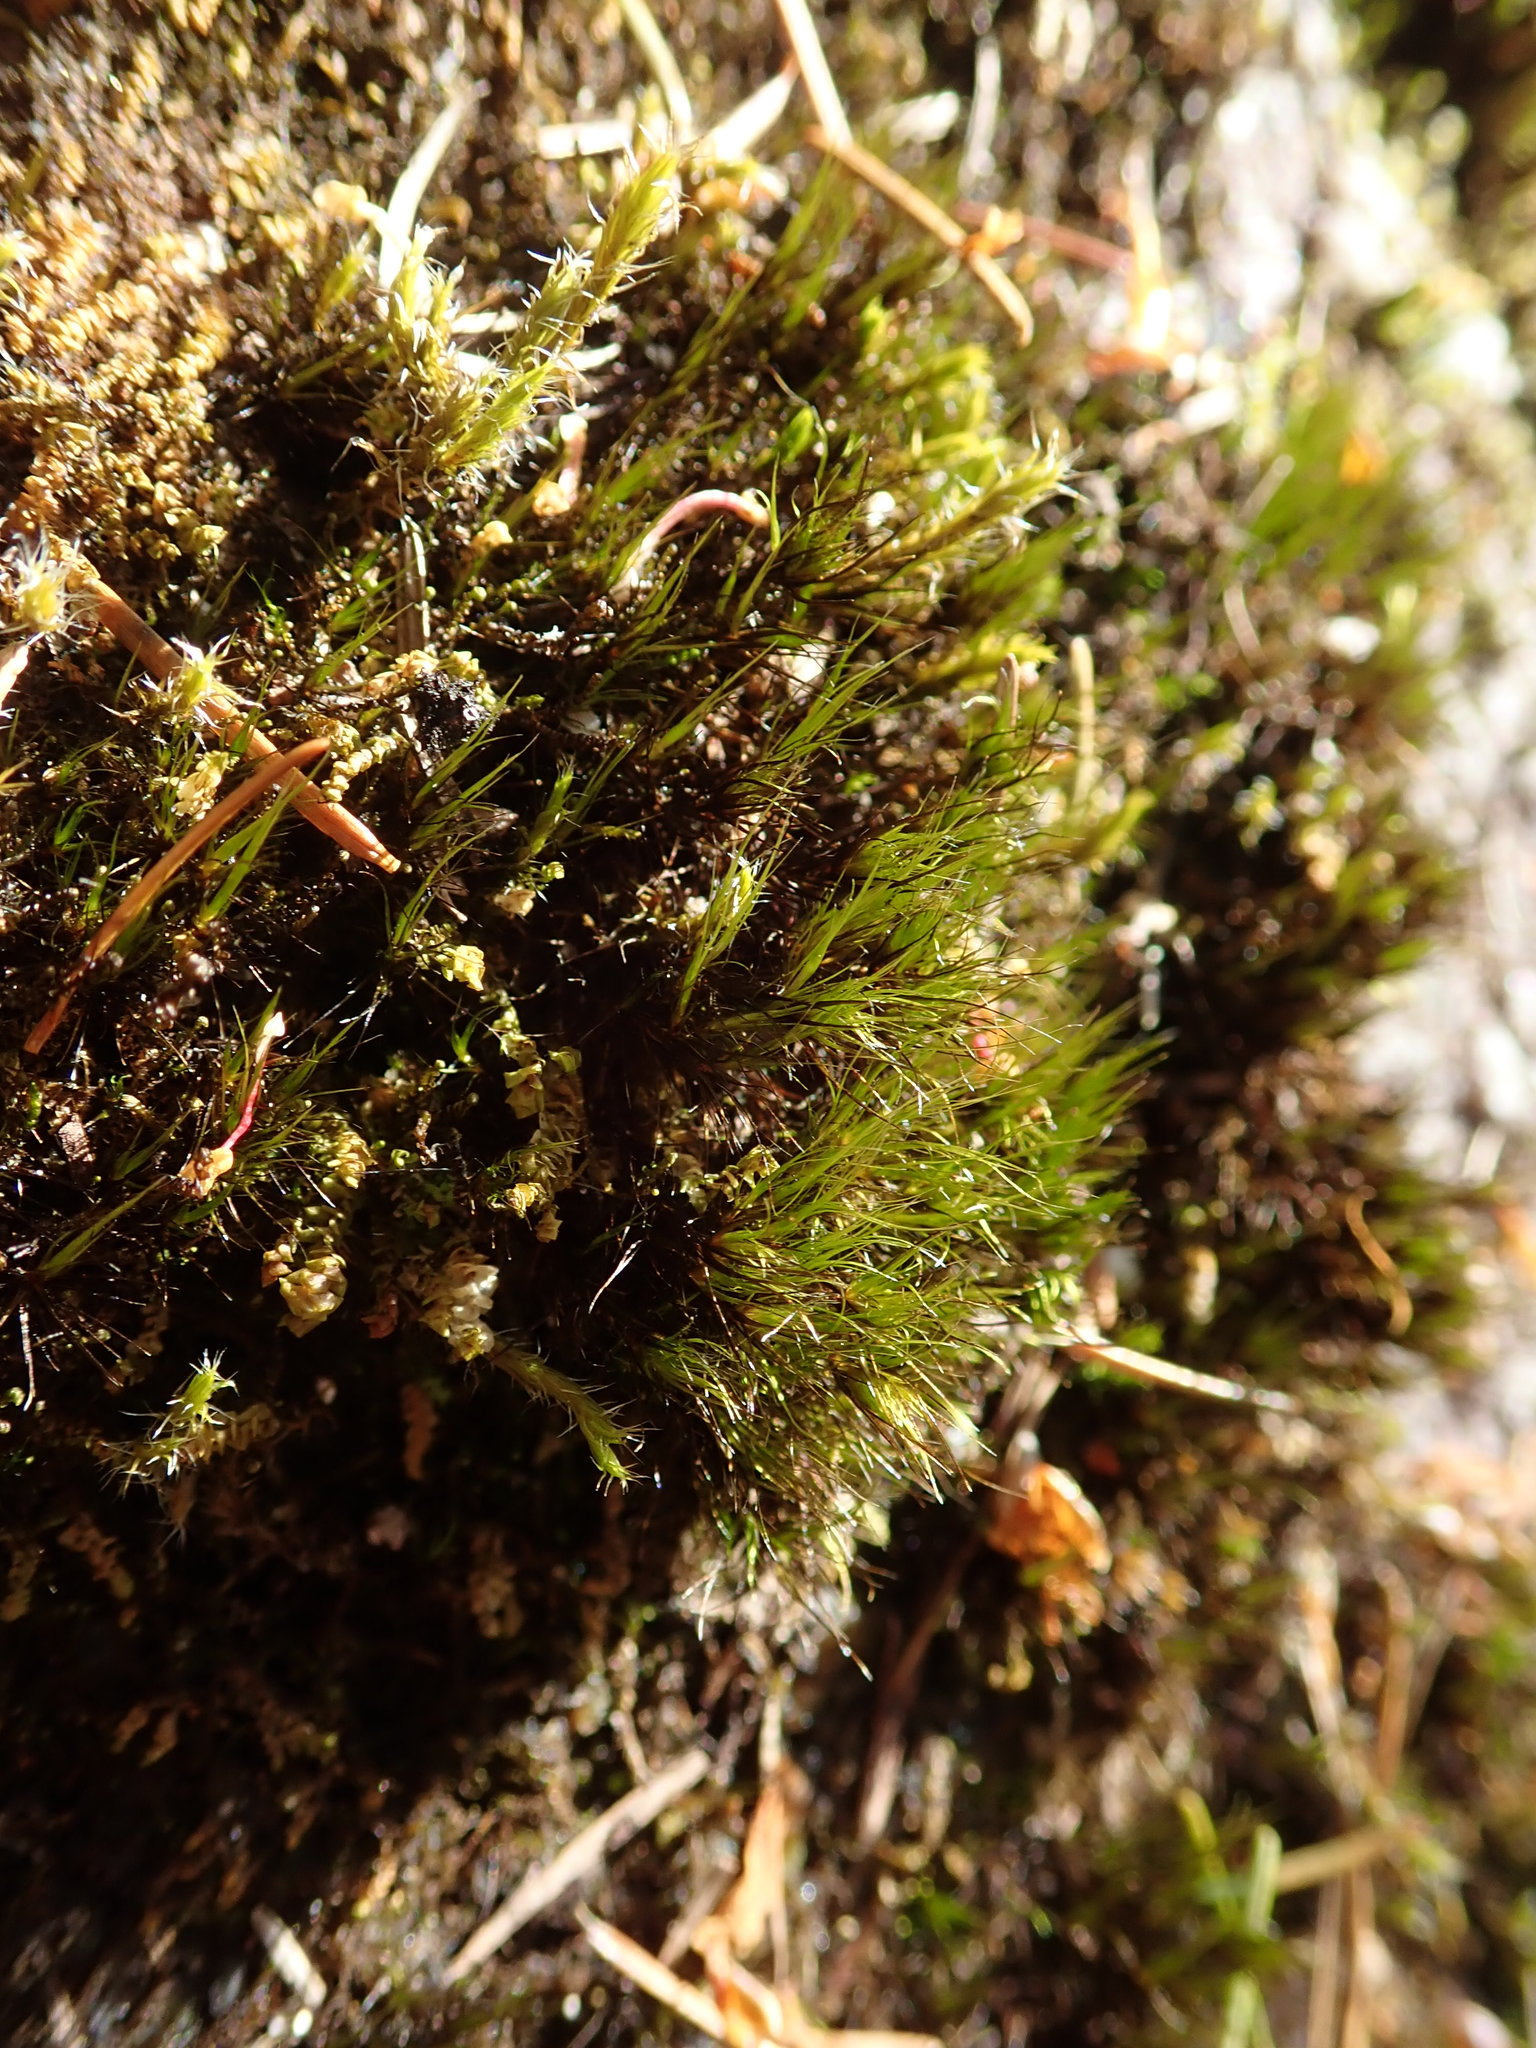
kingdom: Plantae
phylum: Bryophyta
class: Bryopsida
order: Dicranales
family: Leucobryaceae
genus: Campylopus
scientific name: Campylopus atrovirens
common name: Bristly swan-neck moss
